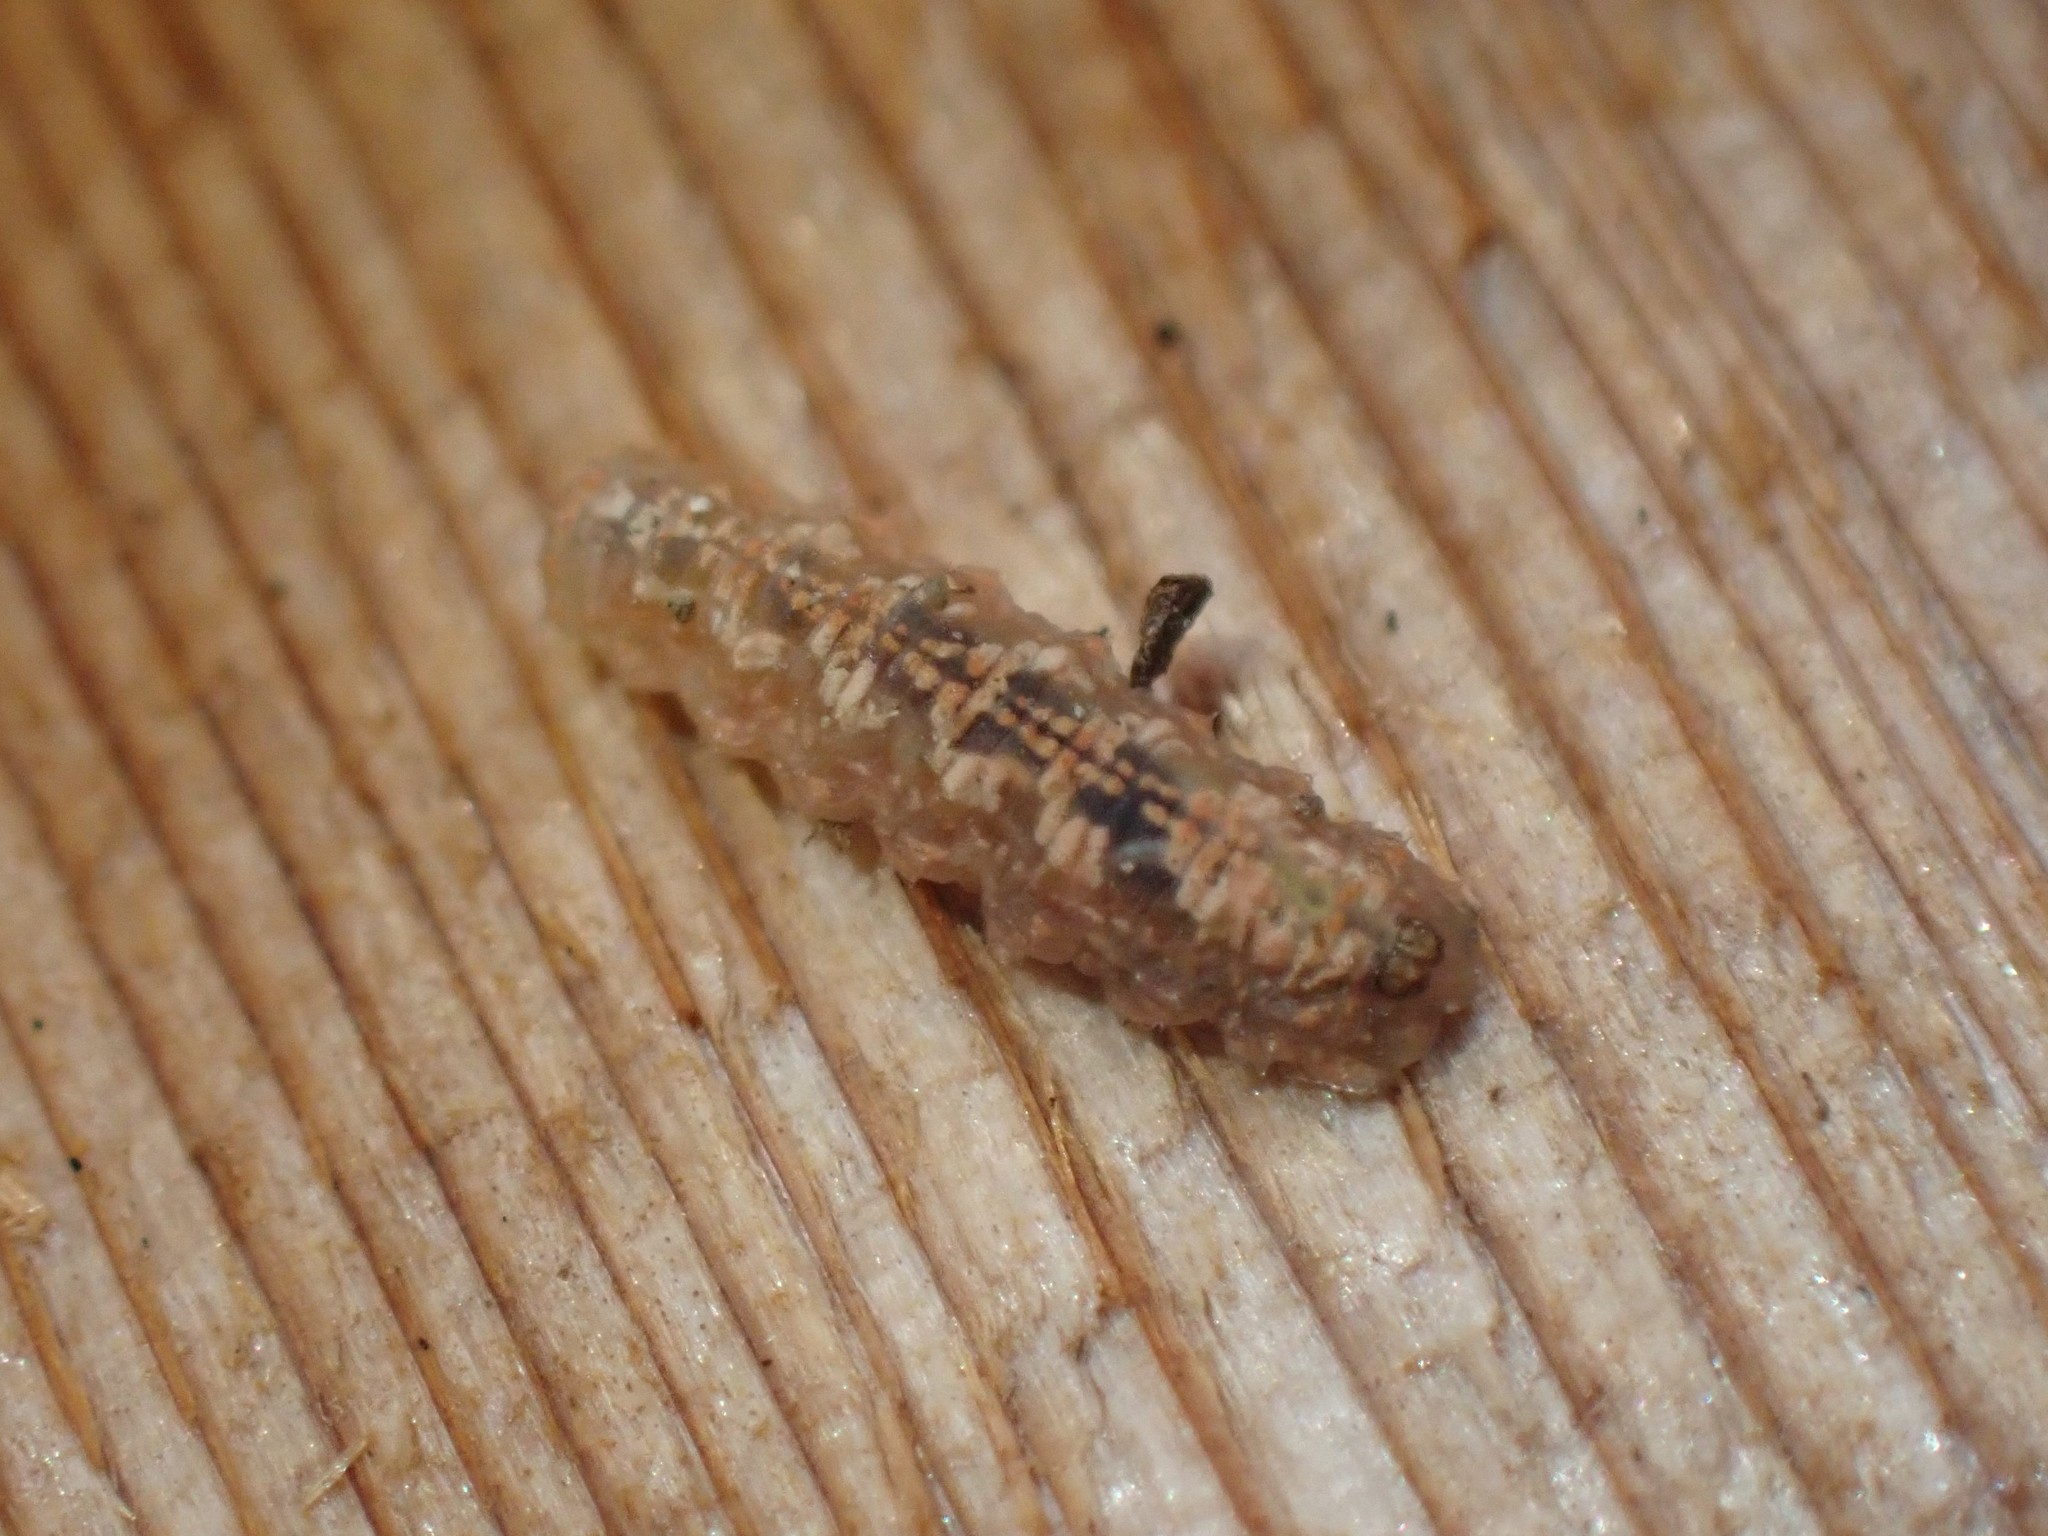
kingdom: Animalia
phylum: Arthropoda
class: Insecta
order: Diptera
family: Syrphidae
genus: Syrphus
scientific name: Syrphus
